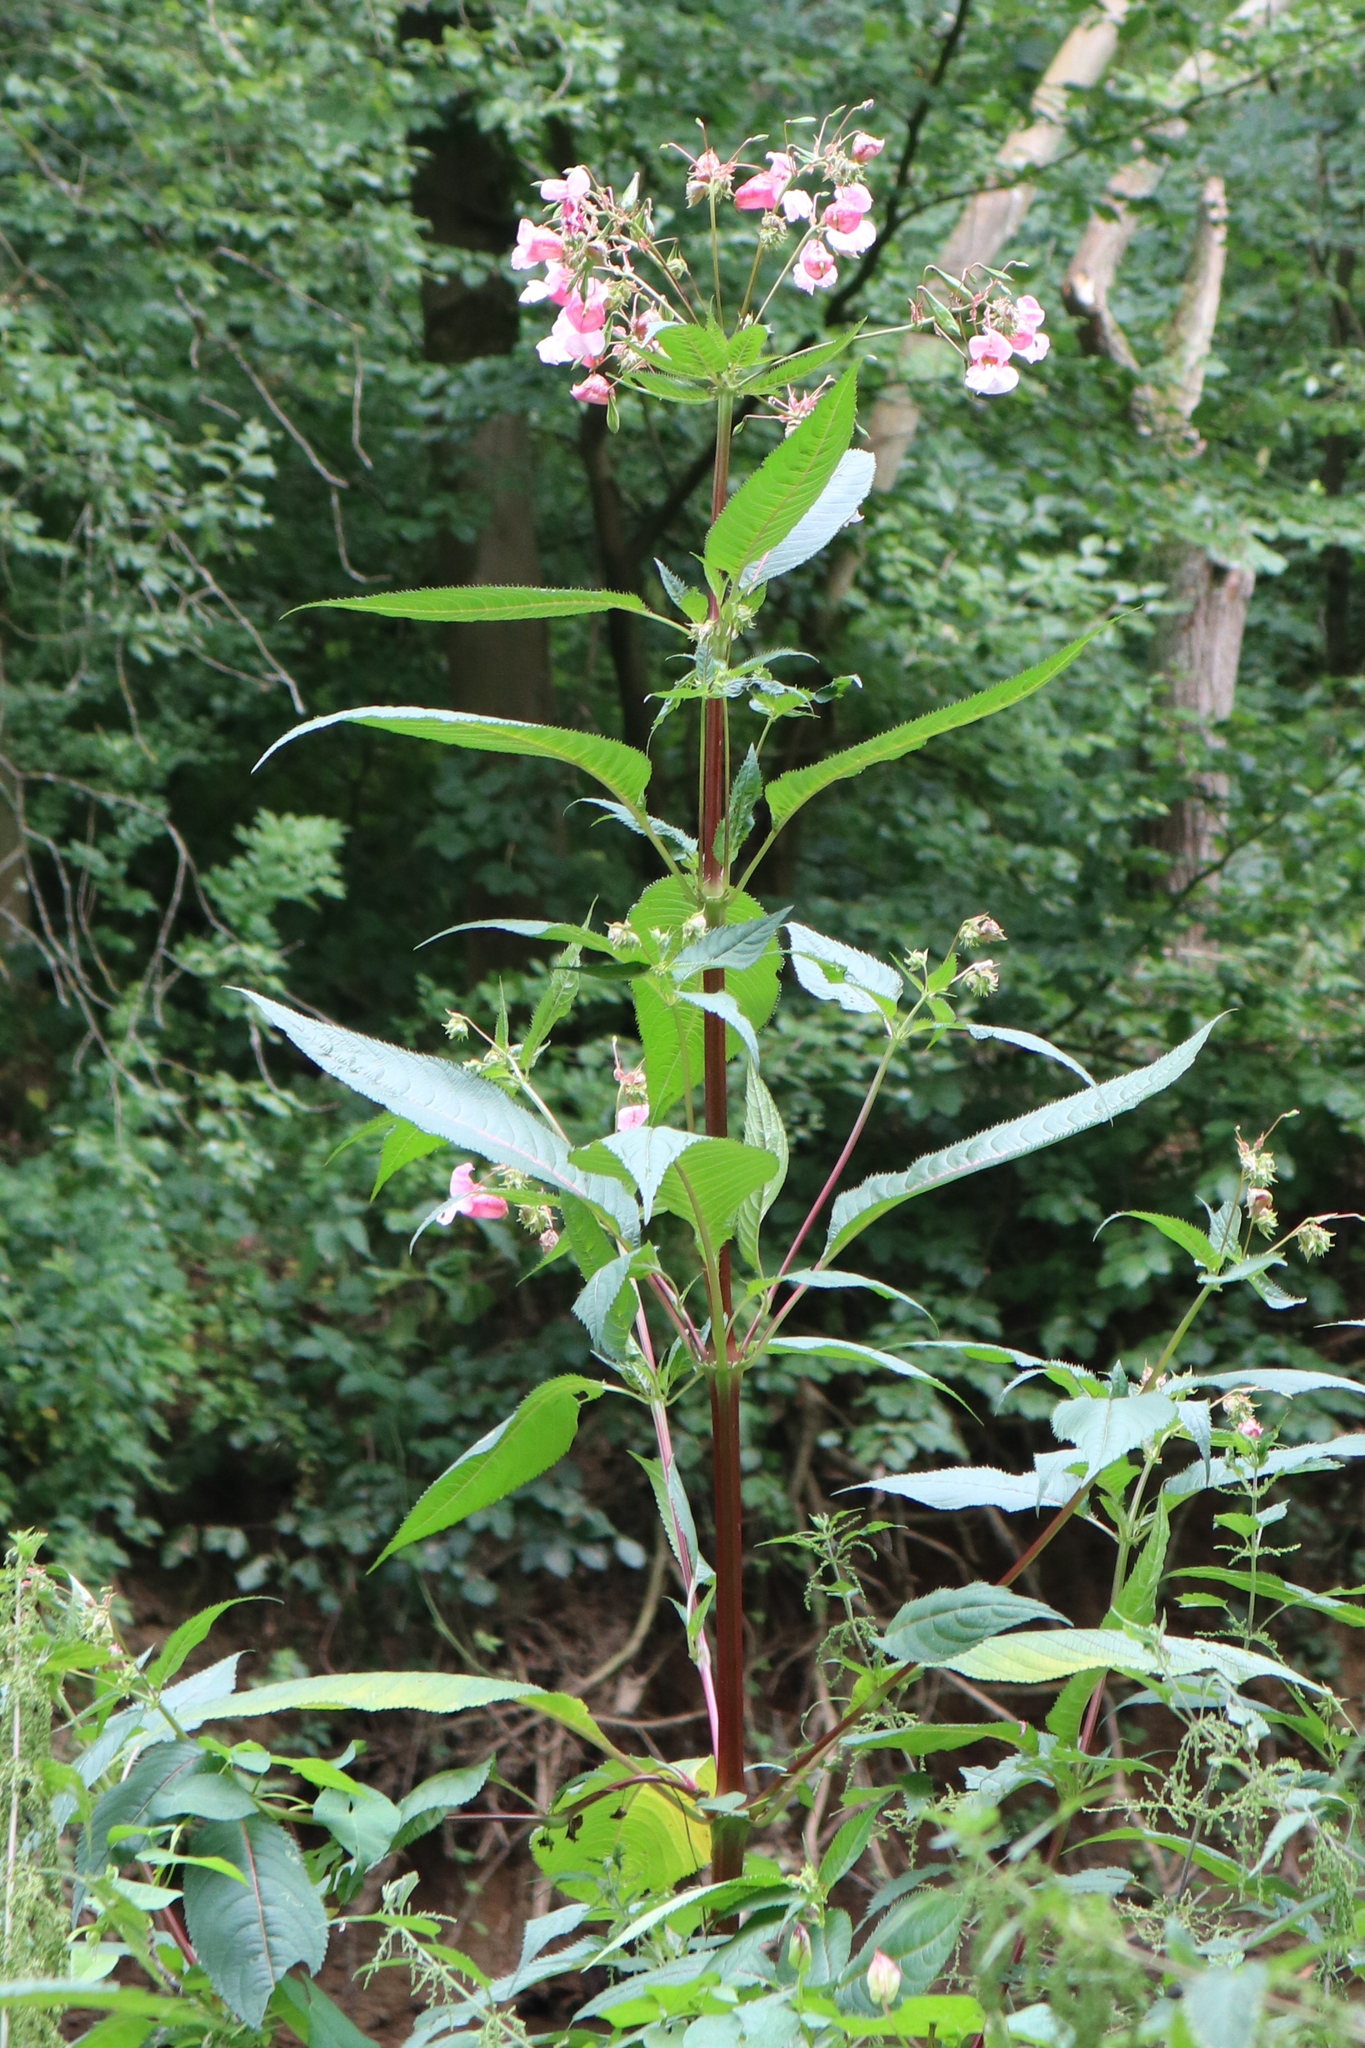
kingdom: Plantae
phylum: Tracheophyta
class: Magnoliopsida
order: Ericales
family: Balsaminaceae
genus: Impatiens
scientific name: Impatiens glandulifera
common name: Himalayan balsam
